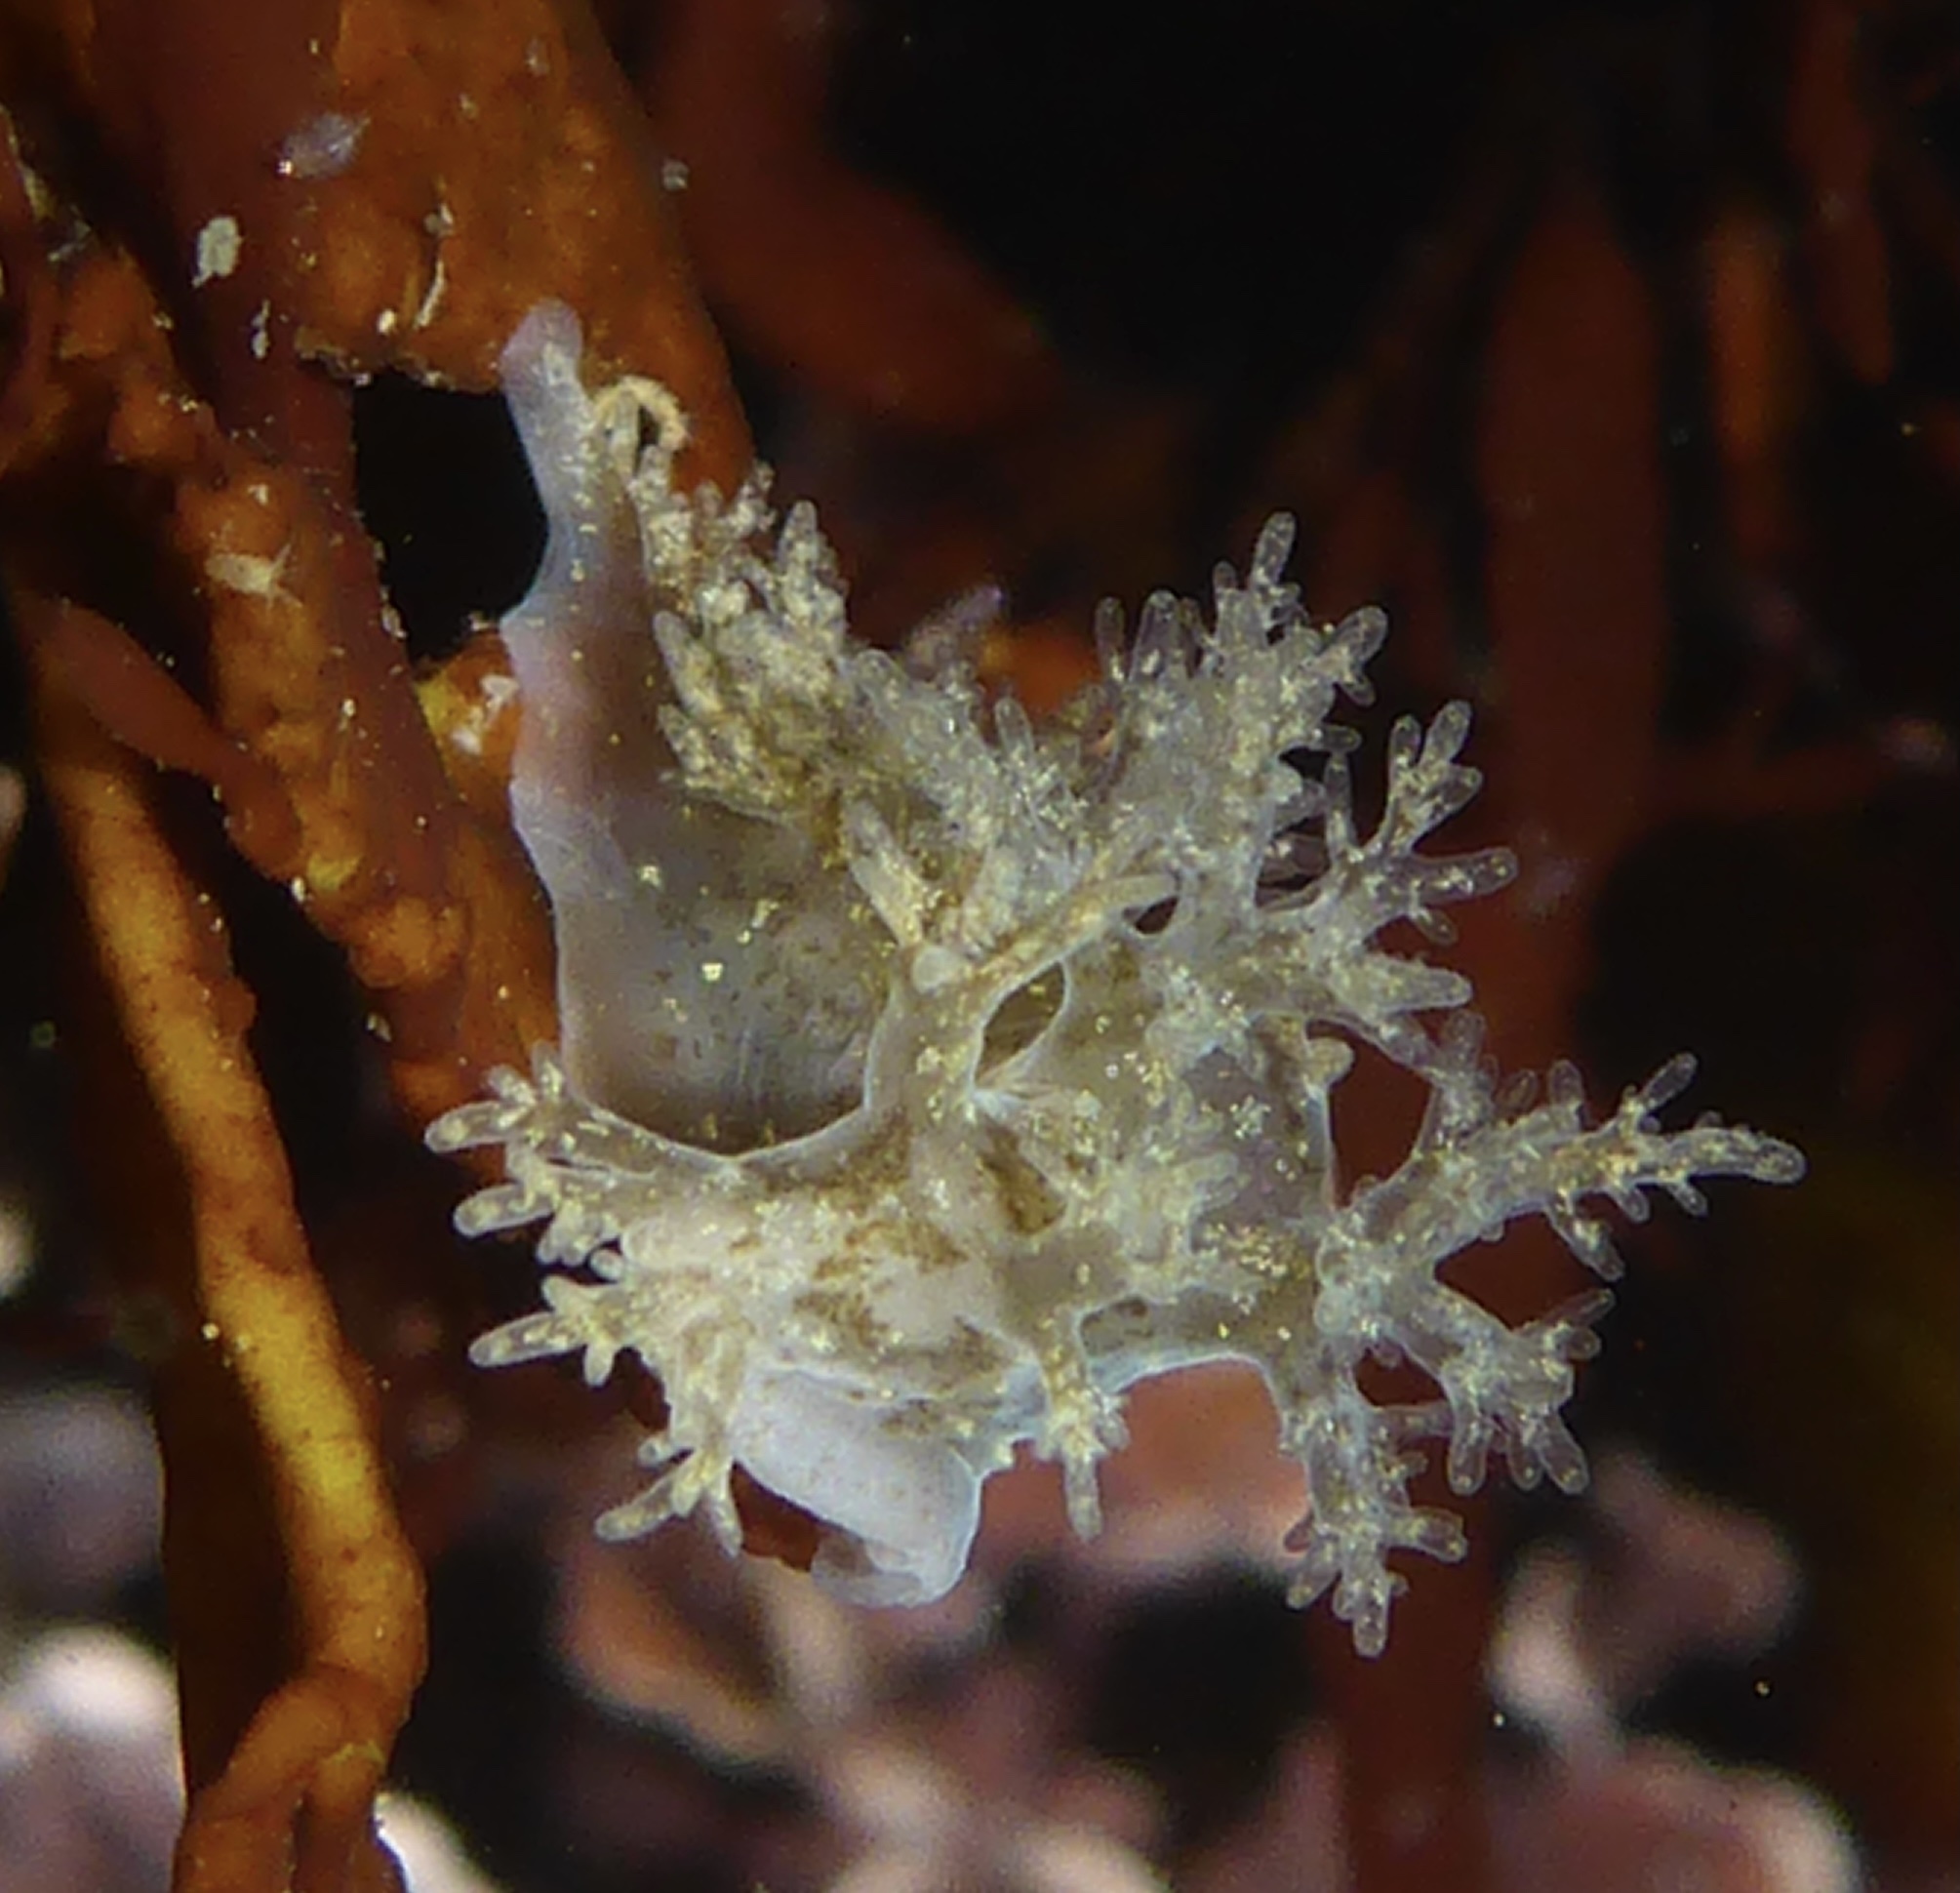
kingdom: Animalia
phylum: Mollusca
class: Gastropoda
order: Nudibranchia
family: Dendronotidae
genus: Dendronotus
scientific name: Dendronotus venustus
